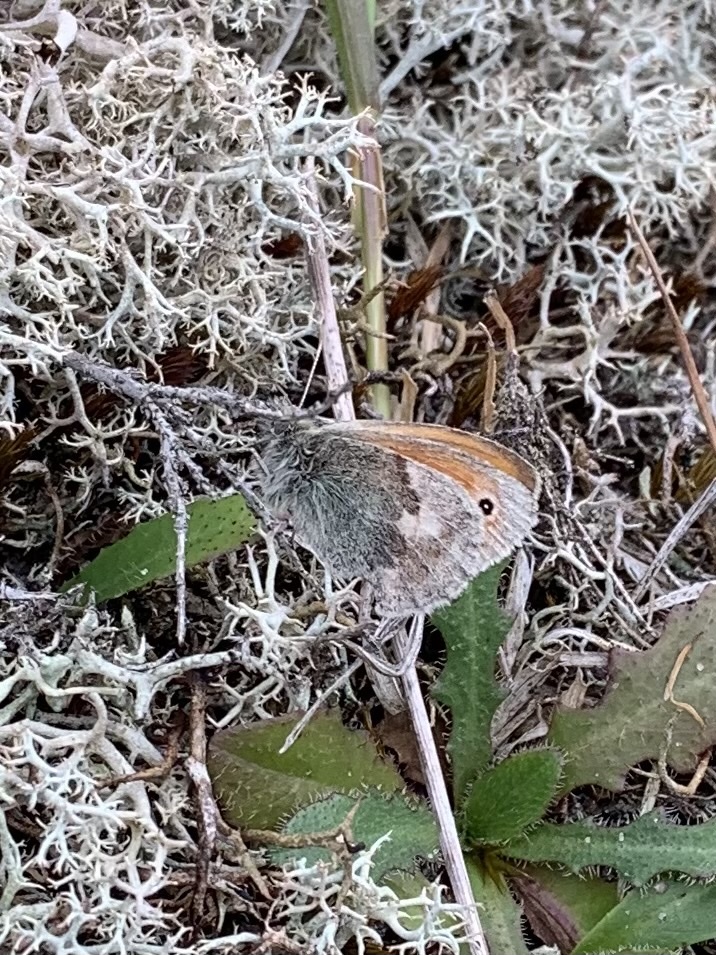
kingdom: Animalia
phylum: Arthropoda
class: Insecta
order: Lepidoptera
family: Nymphalidae
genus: Coenonympha
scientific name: Coenonympha pamphilus
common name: Small heath
